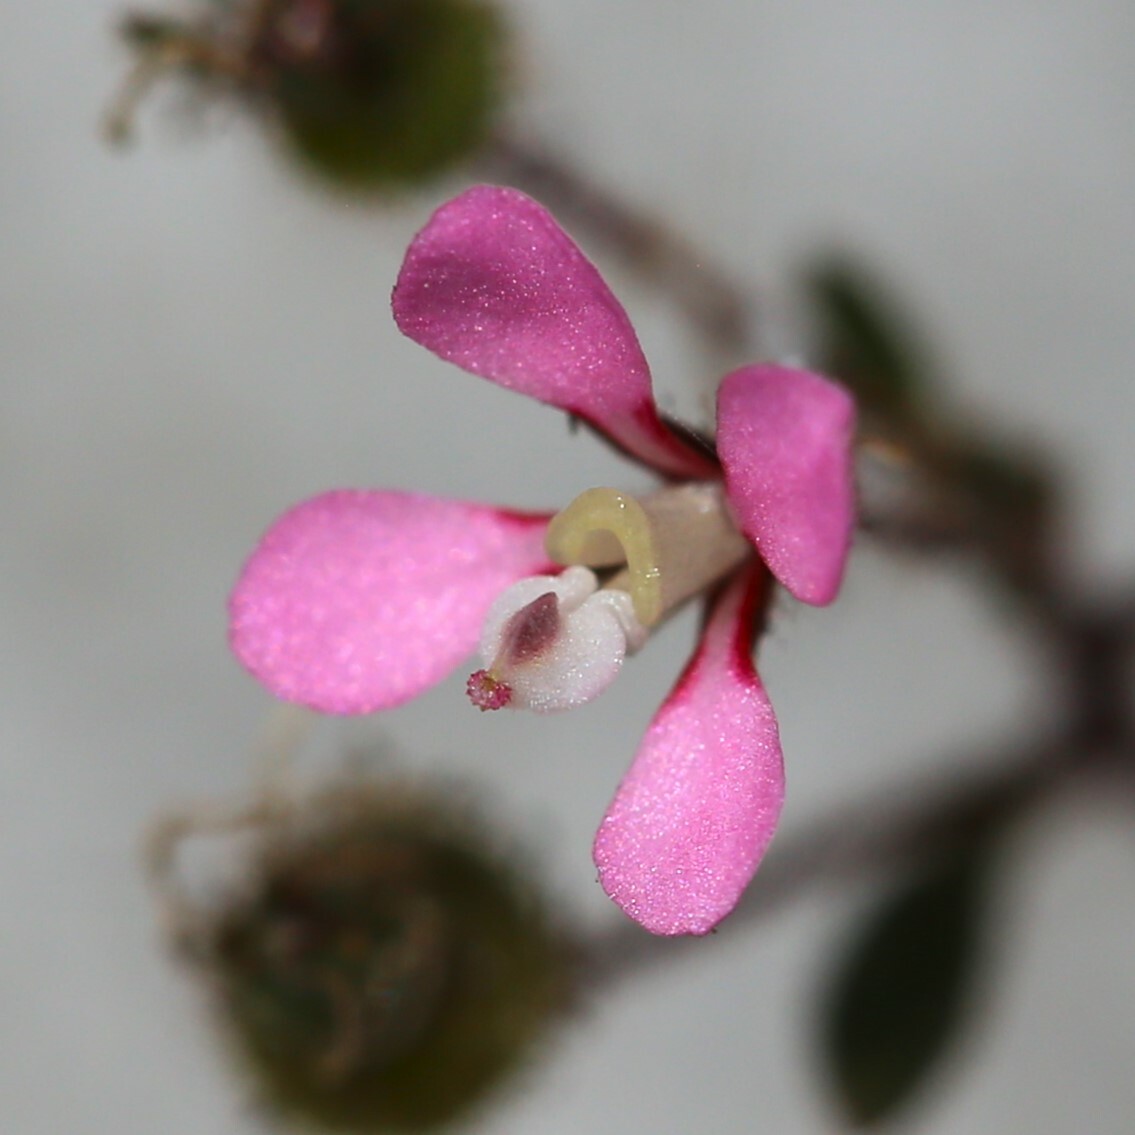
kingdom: Plantae
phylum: Tracheophyta
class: Magnoliopsida
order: Asterales
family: Stylidiaceae
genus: Levenhookia
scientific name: Levenhookia stipitata
